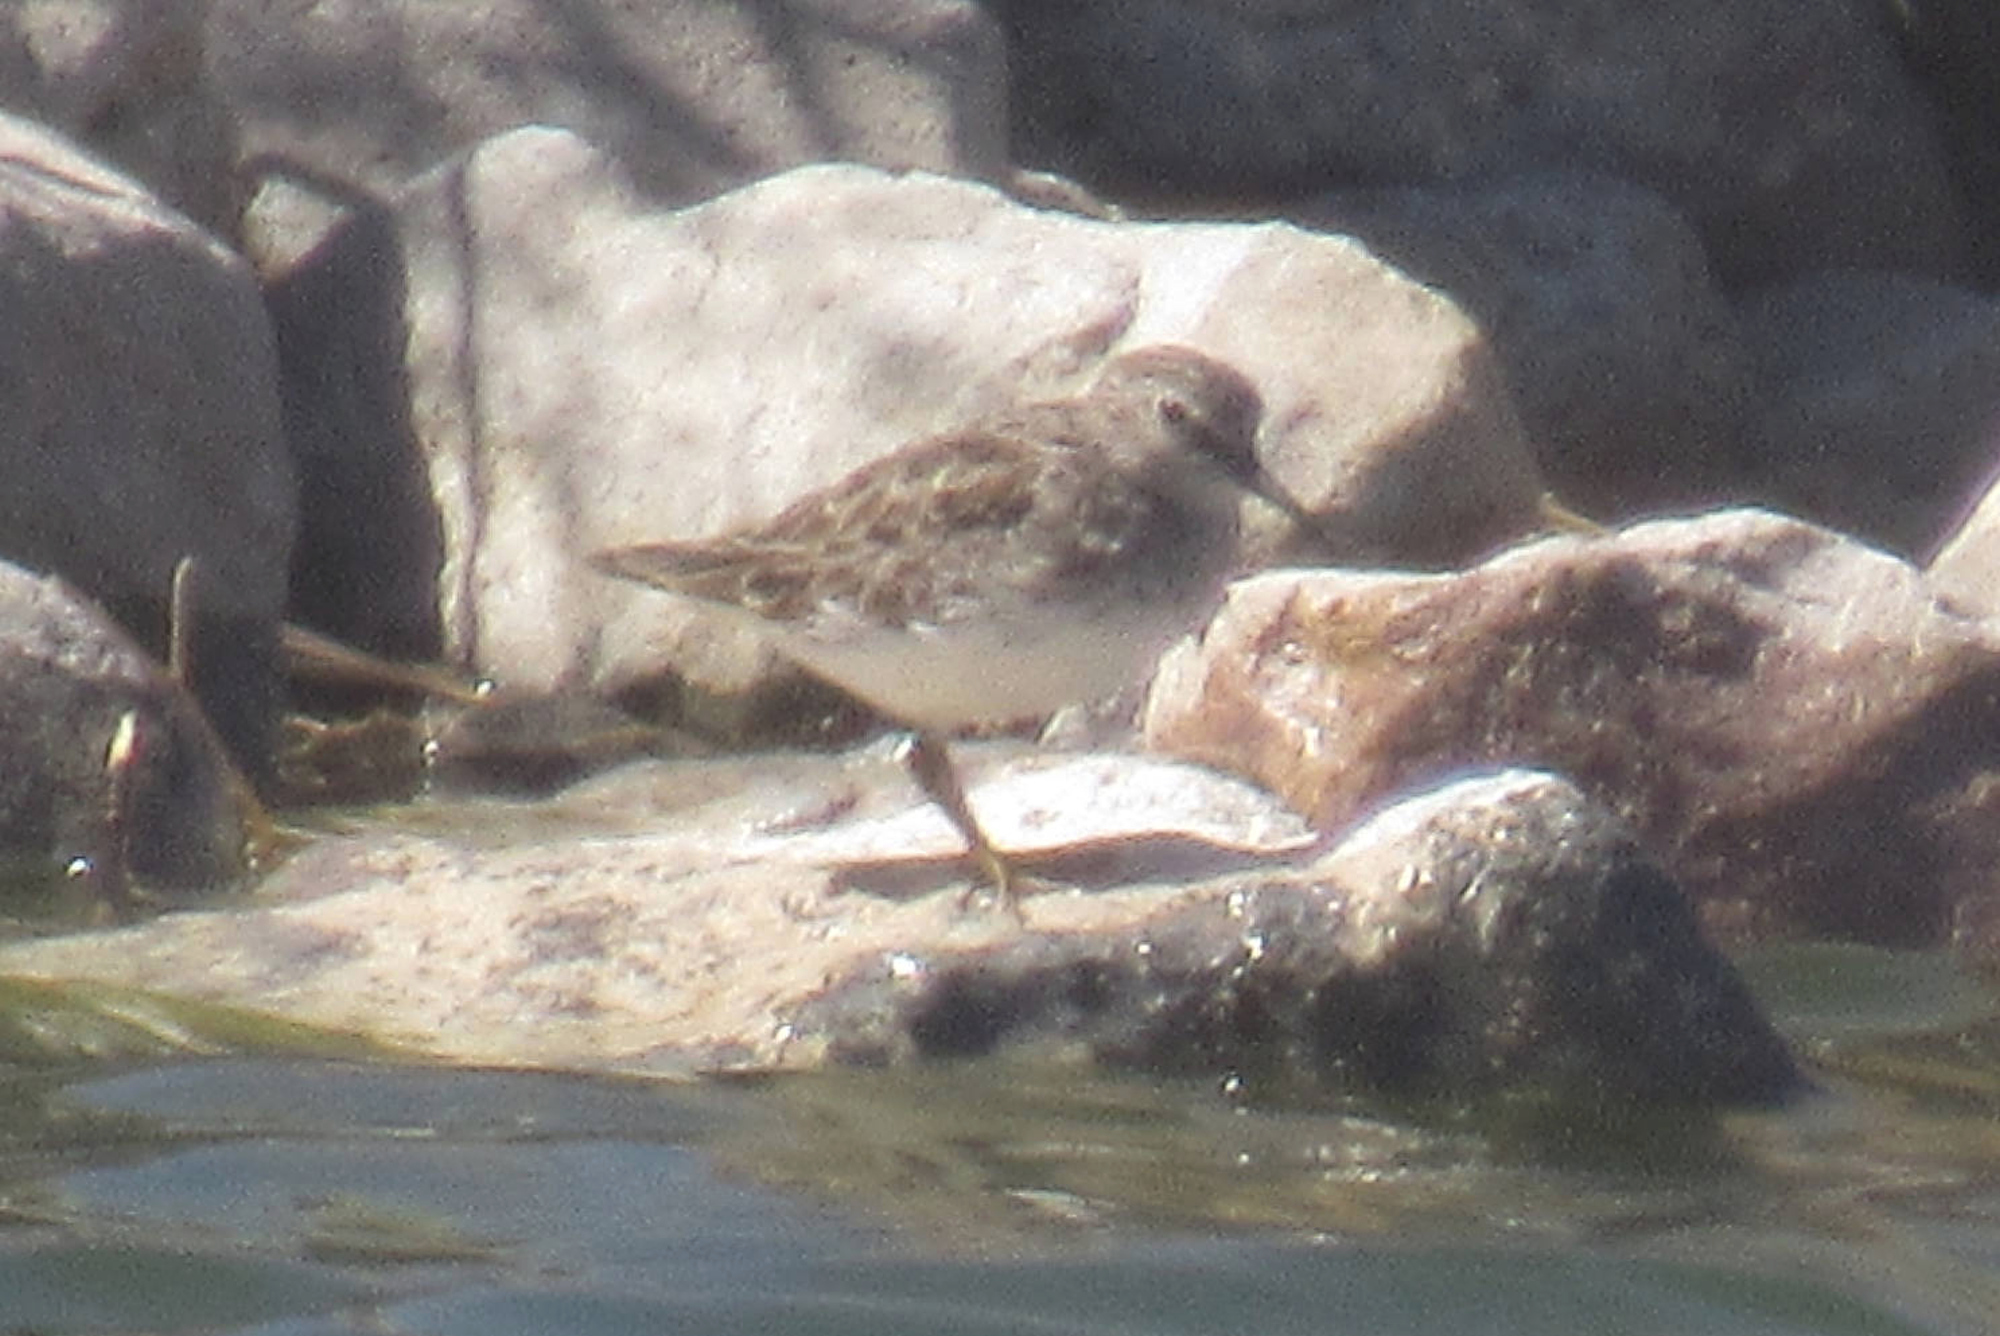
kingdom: Animalia
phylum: Chordata
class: Aves
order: Charadriiformes
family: Scolopacidae
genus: Calidris
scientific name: Calidris minutilla
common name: Least sandpiper
